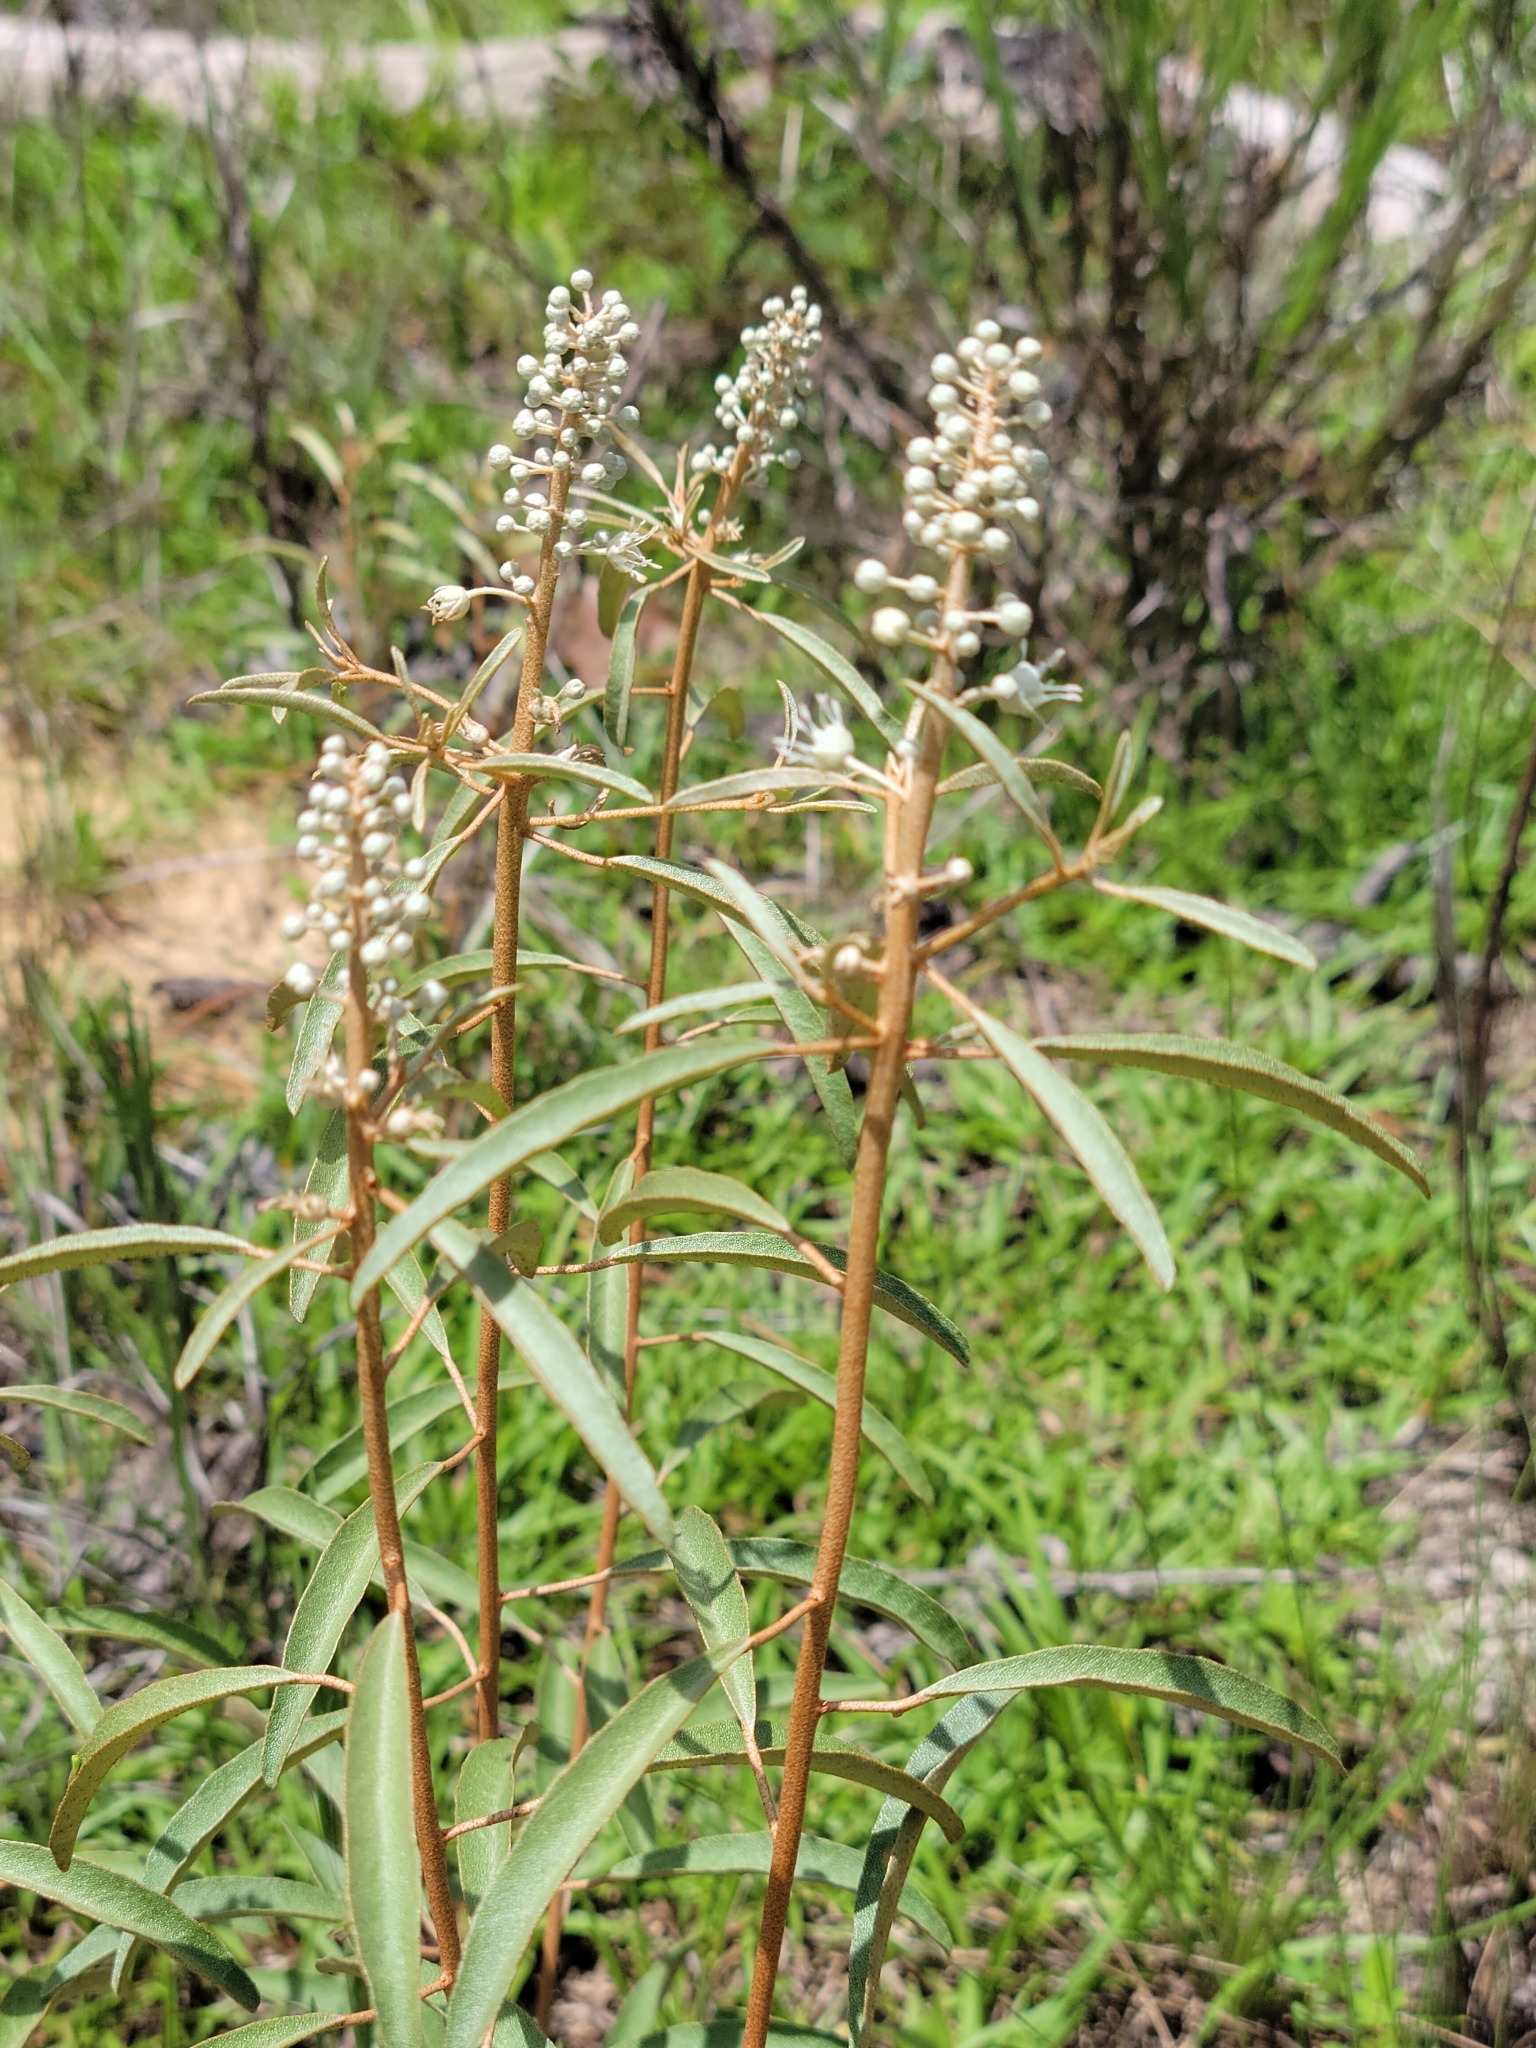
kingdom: Plantae
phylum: Tracheophyta
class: Magnoliopsida
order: Malpighiales
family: Euphorbiaceae
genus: Croton
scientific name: Croton argyranthemus
